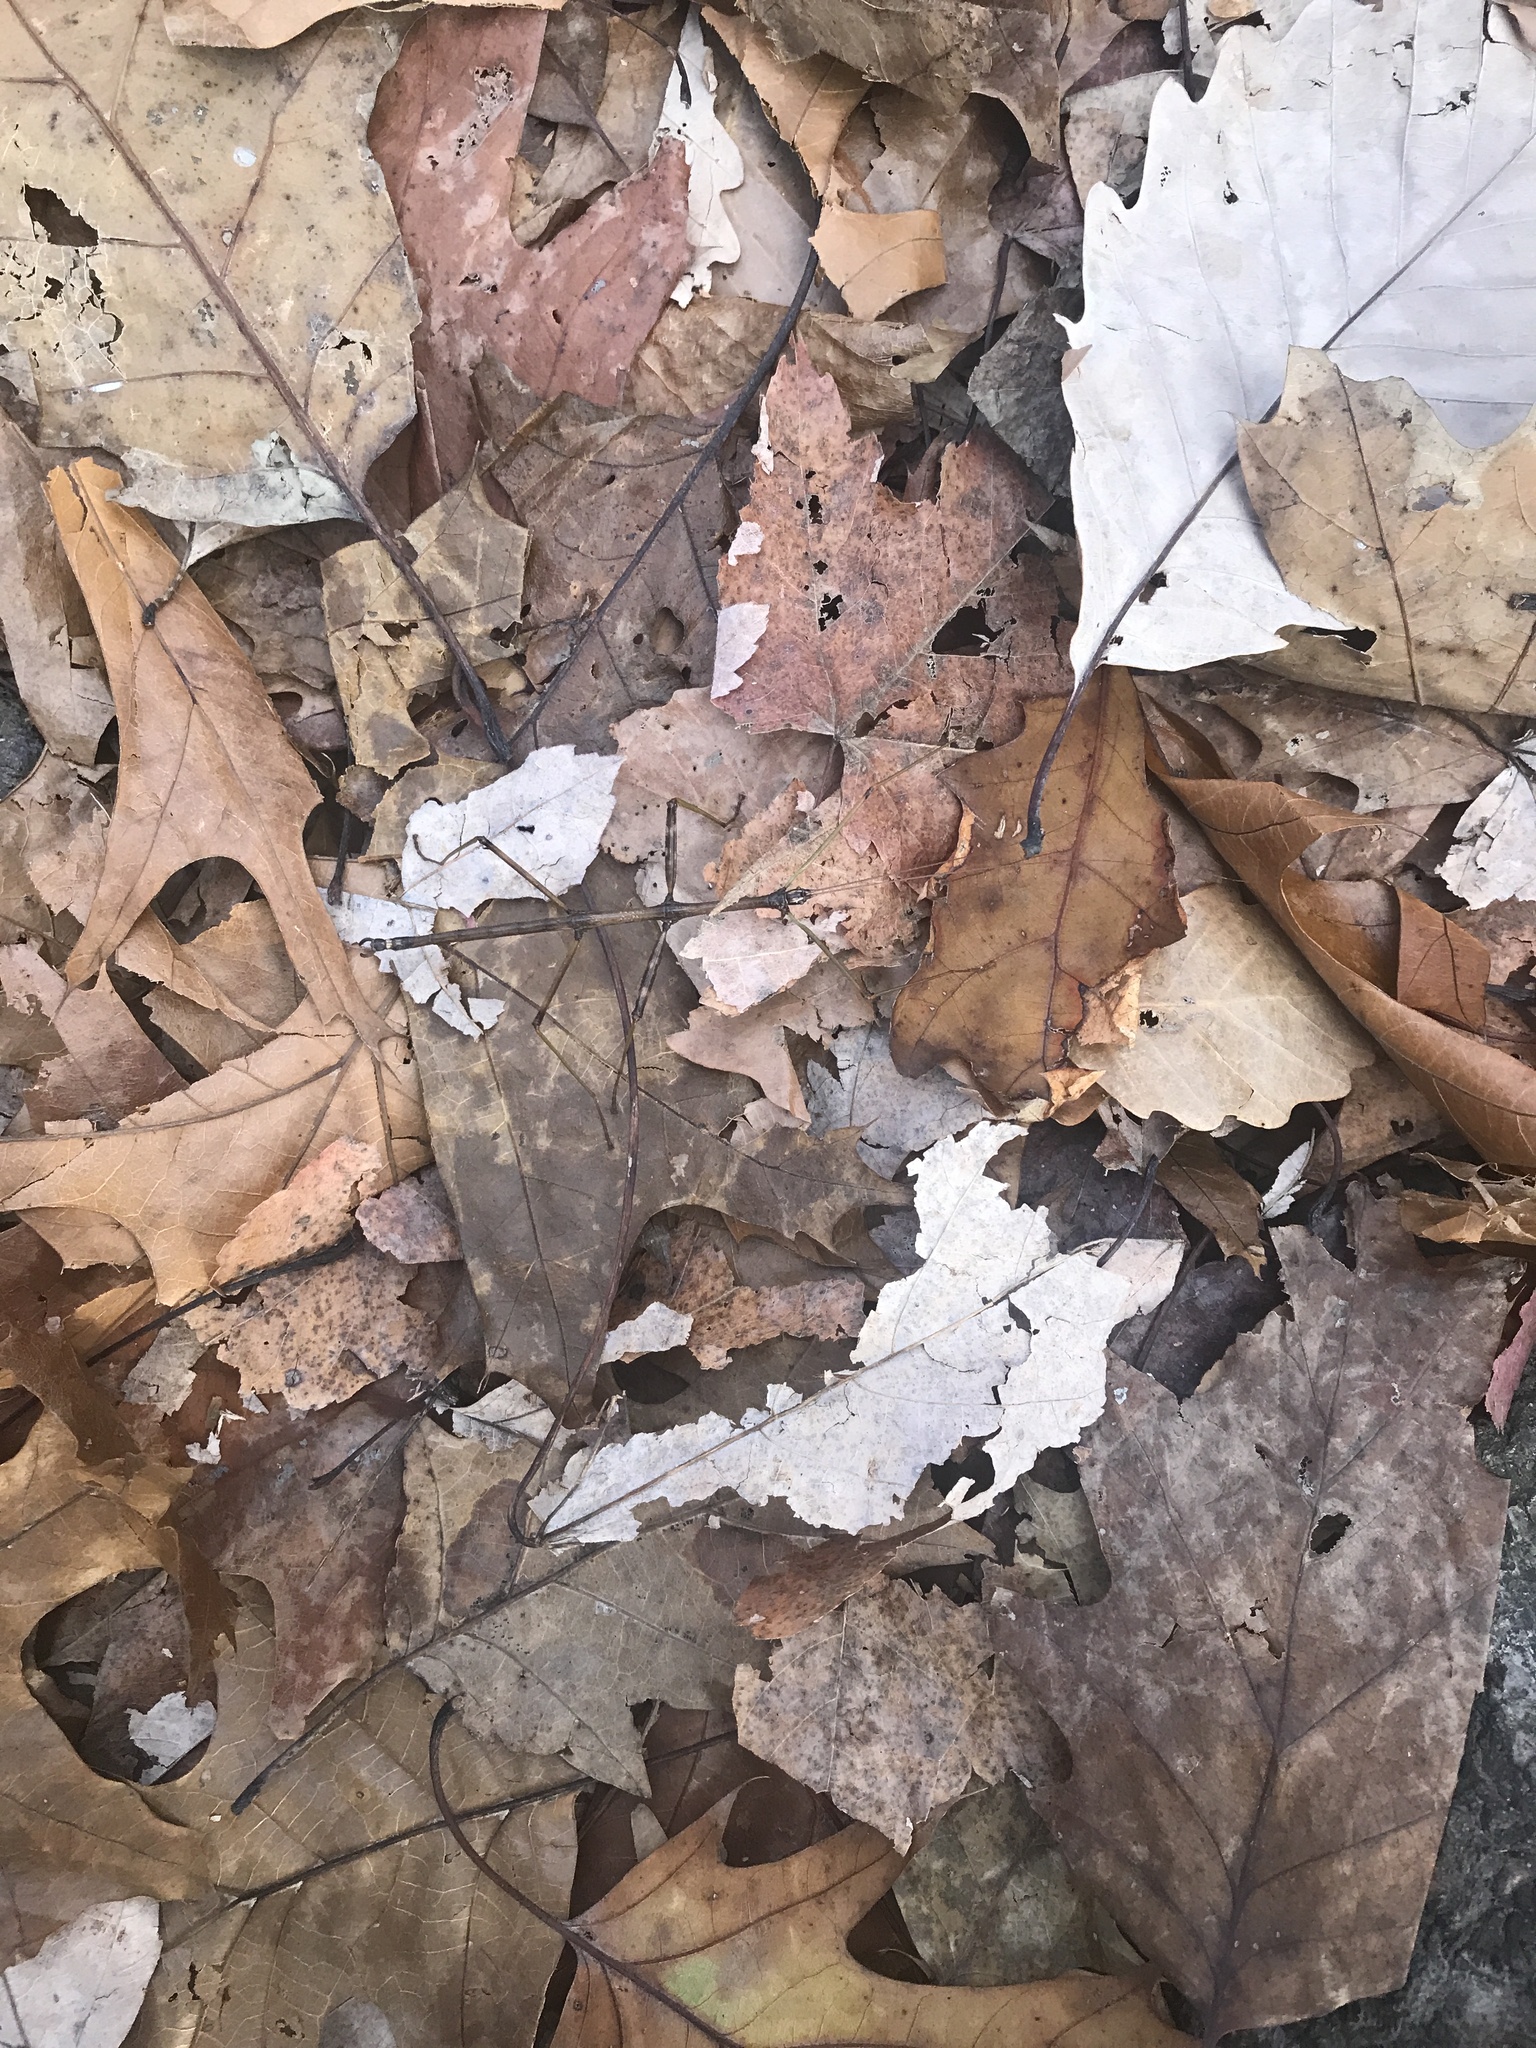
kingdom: Animalia
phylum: Arthropoda
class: Insecta
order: Phasmida
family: Diapheromeridae
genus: Diapheromera
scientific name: Diapheromera femorata
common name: Common american walkingstick
